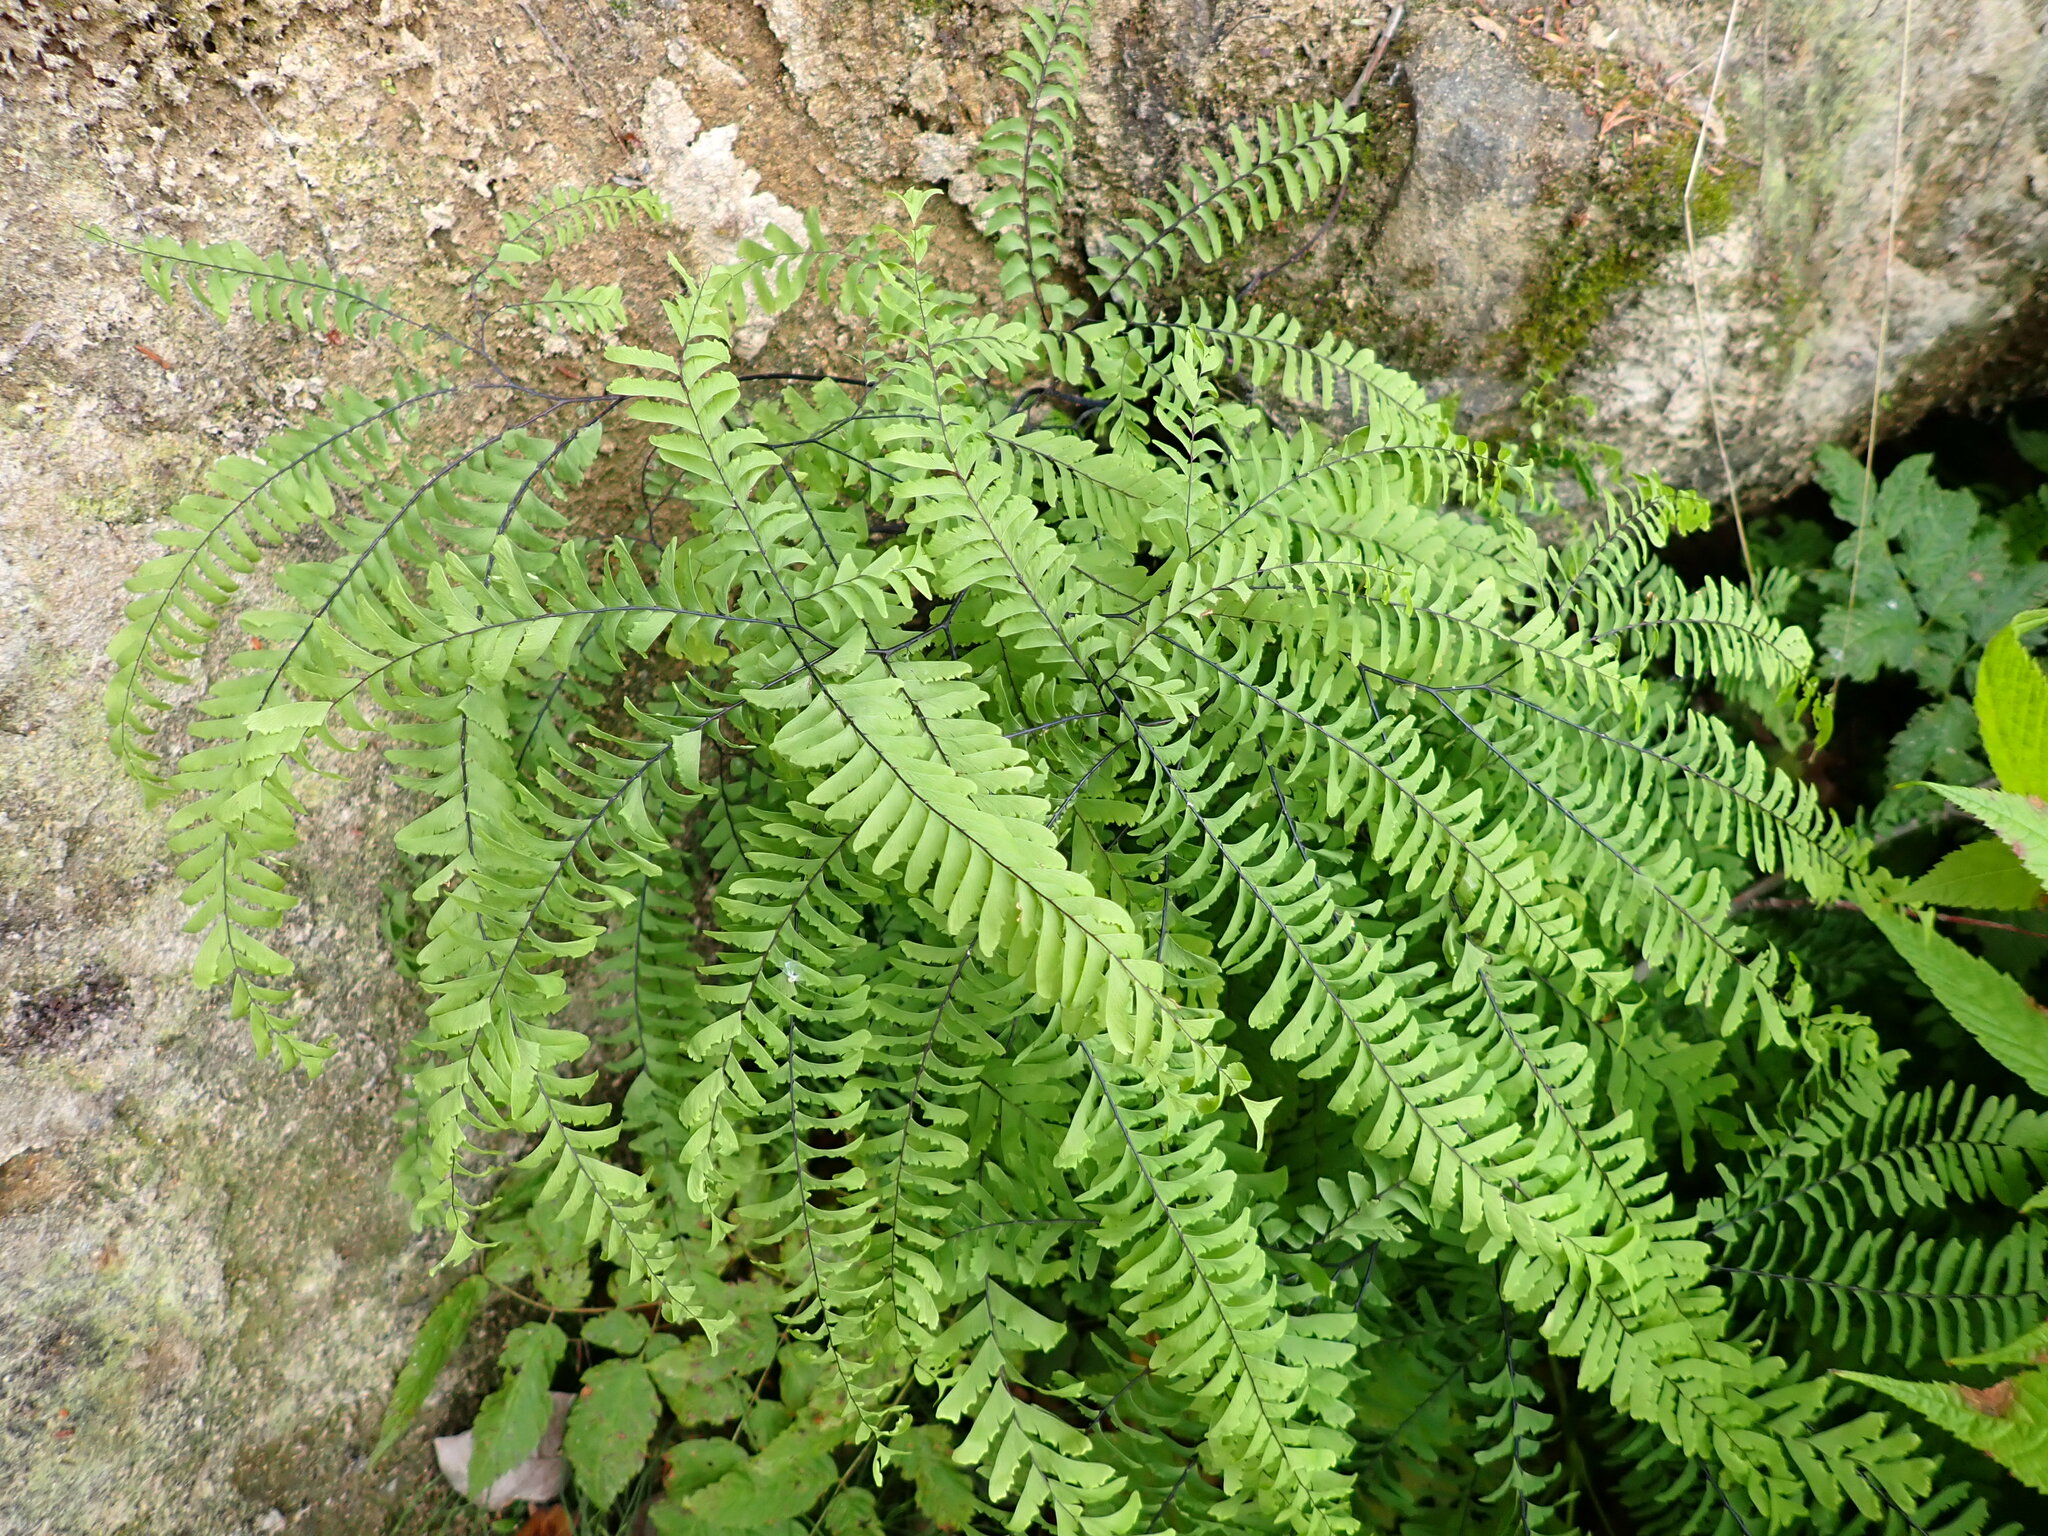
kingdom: Plantae
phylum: Tracheophyta
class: Polypodiopsida
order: Polypodiales
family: Pteridaceae
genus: Adiantum
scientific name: Adiantum aleuticum
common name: Aleutian maidenhair fern
